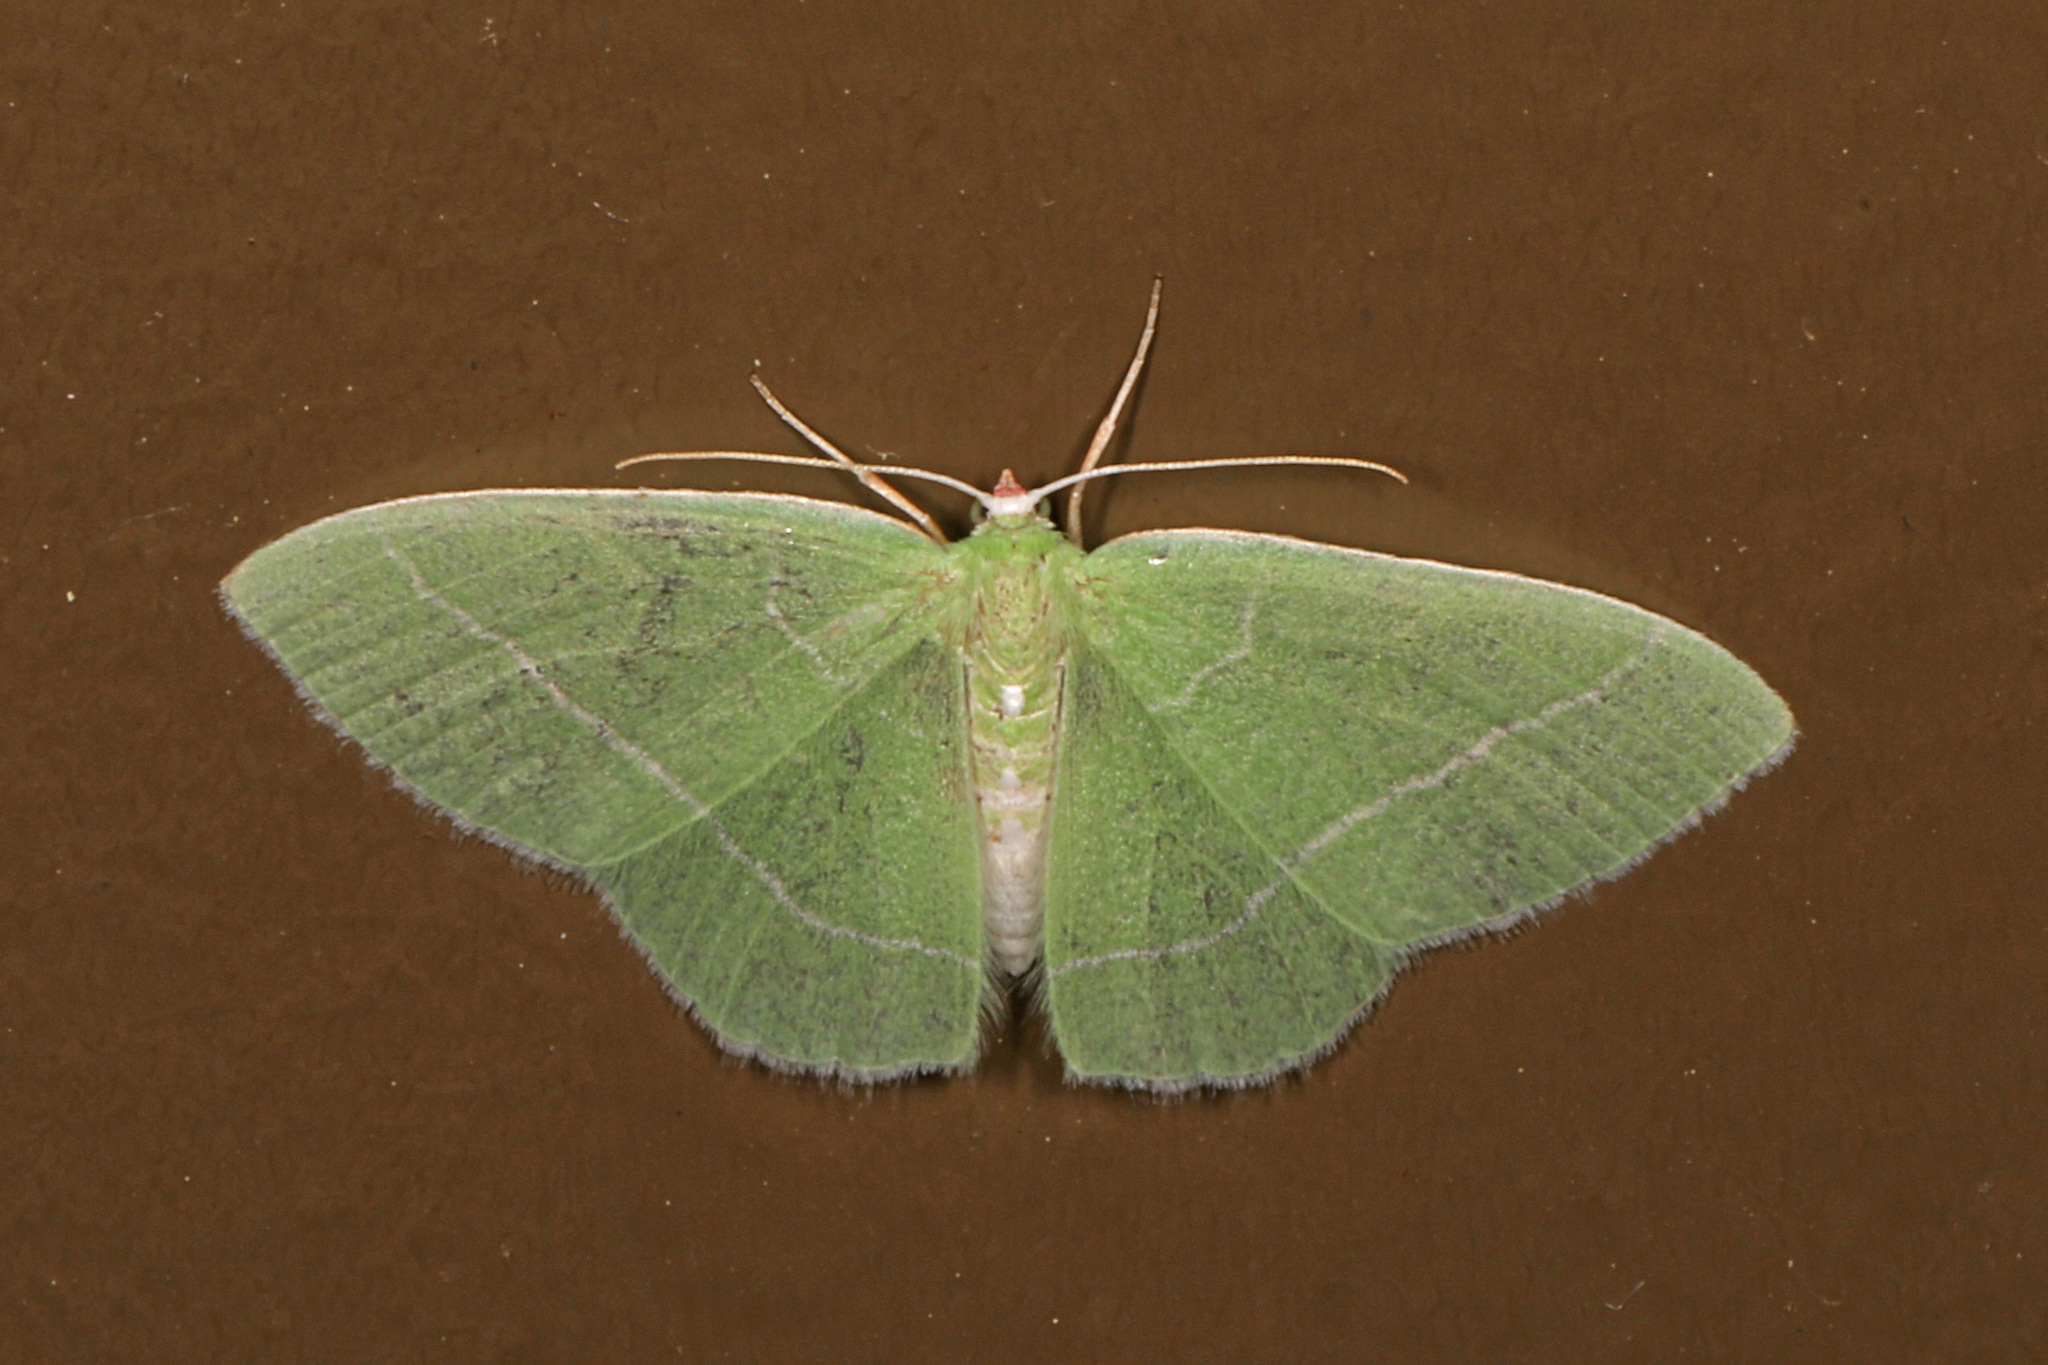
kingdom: Animalia
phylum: Arthropoda
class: Insecta
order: Lepidoptera
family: Geometridae
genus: Nemoria
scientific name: Nemoria mimosaria
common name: White-fringed emerald
